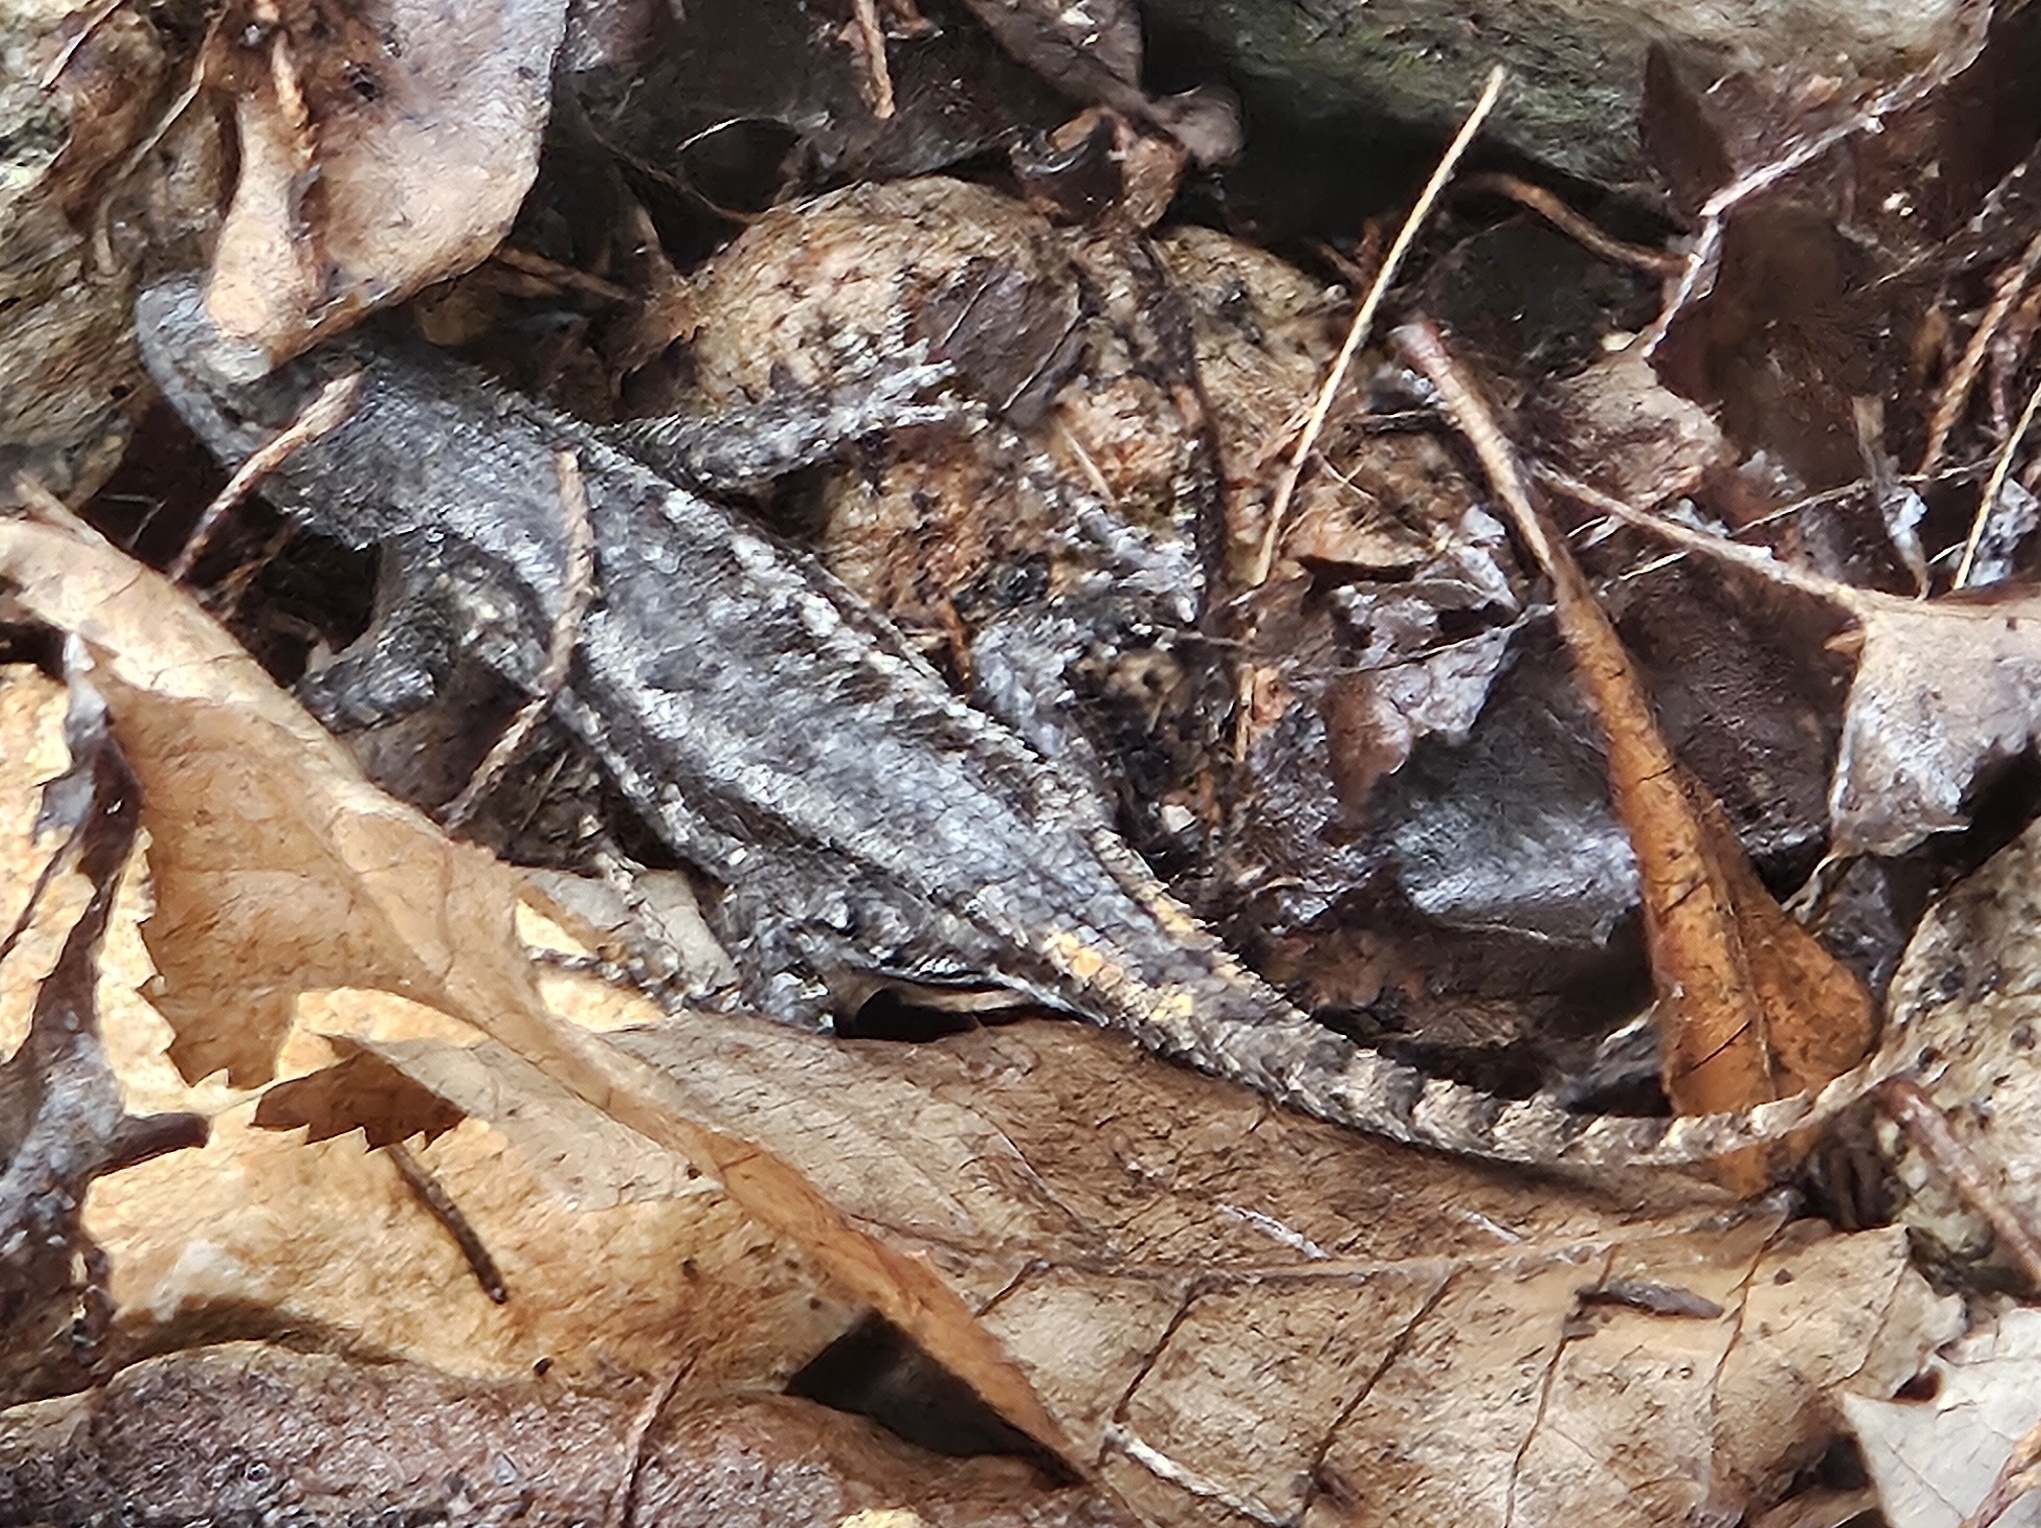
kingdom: Animalia
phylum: Chordata
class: Squamata
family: Phrynosomatidae
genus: Sceloporus
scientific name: Sceloporus consobrinus
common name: Southern prairie lizard
